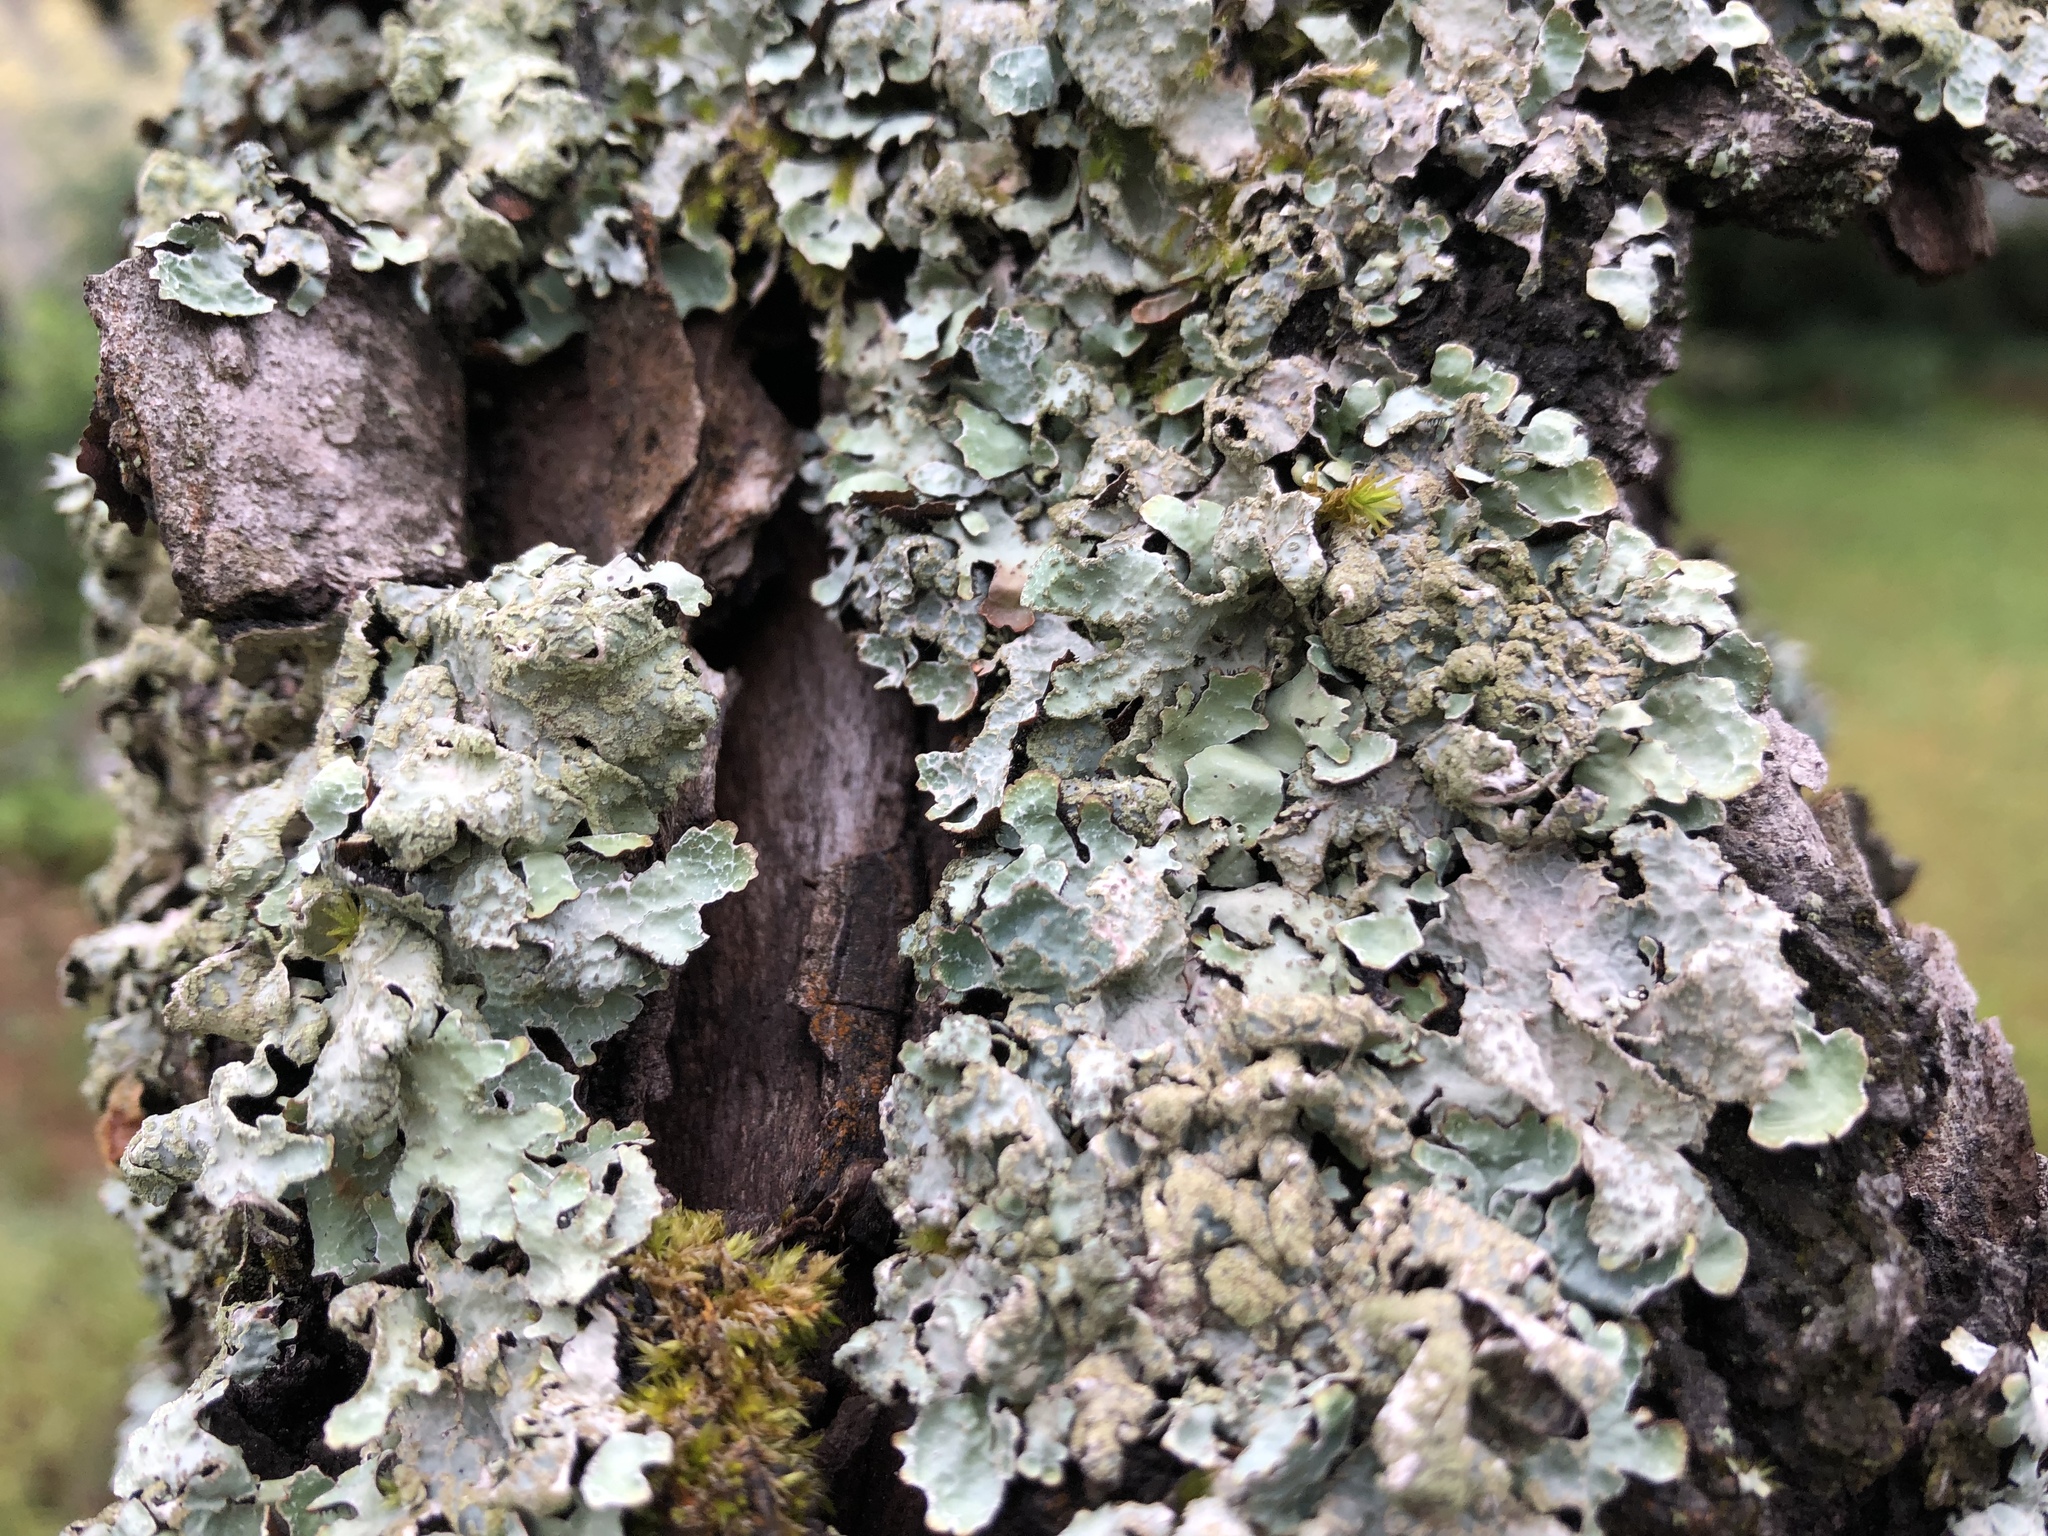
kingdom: Fungi
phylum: Ascomycota
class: Lecanoromycetes
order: Lecanorales
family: Parmeliaceae
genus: Parmelia
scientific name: Parmelia sulcata
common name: Netted shield lichen
